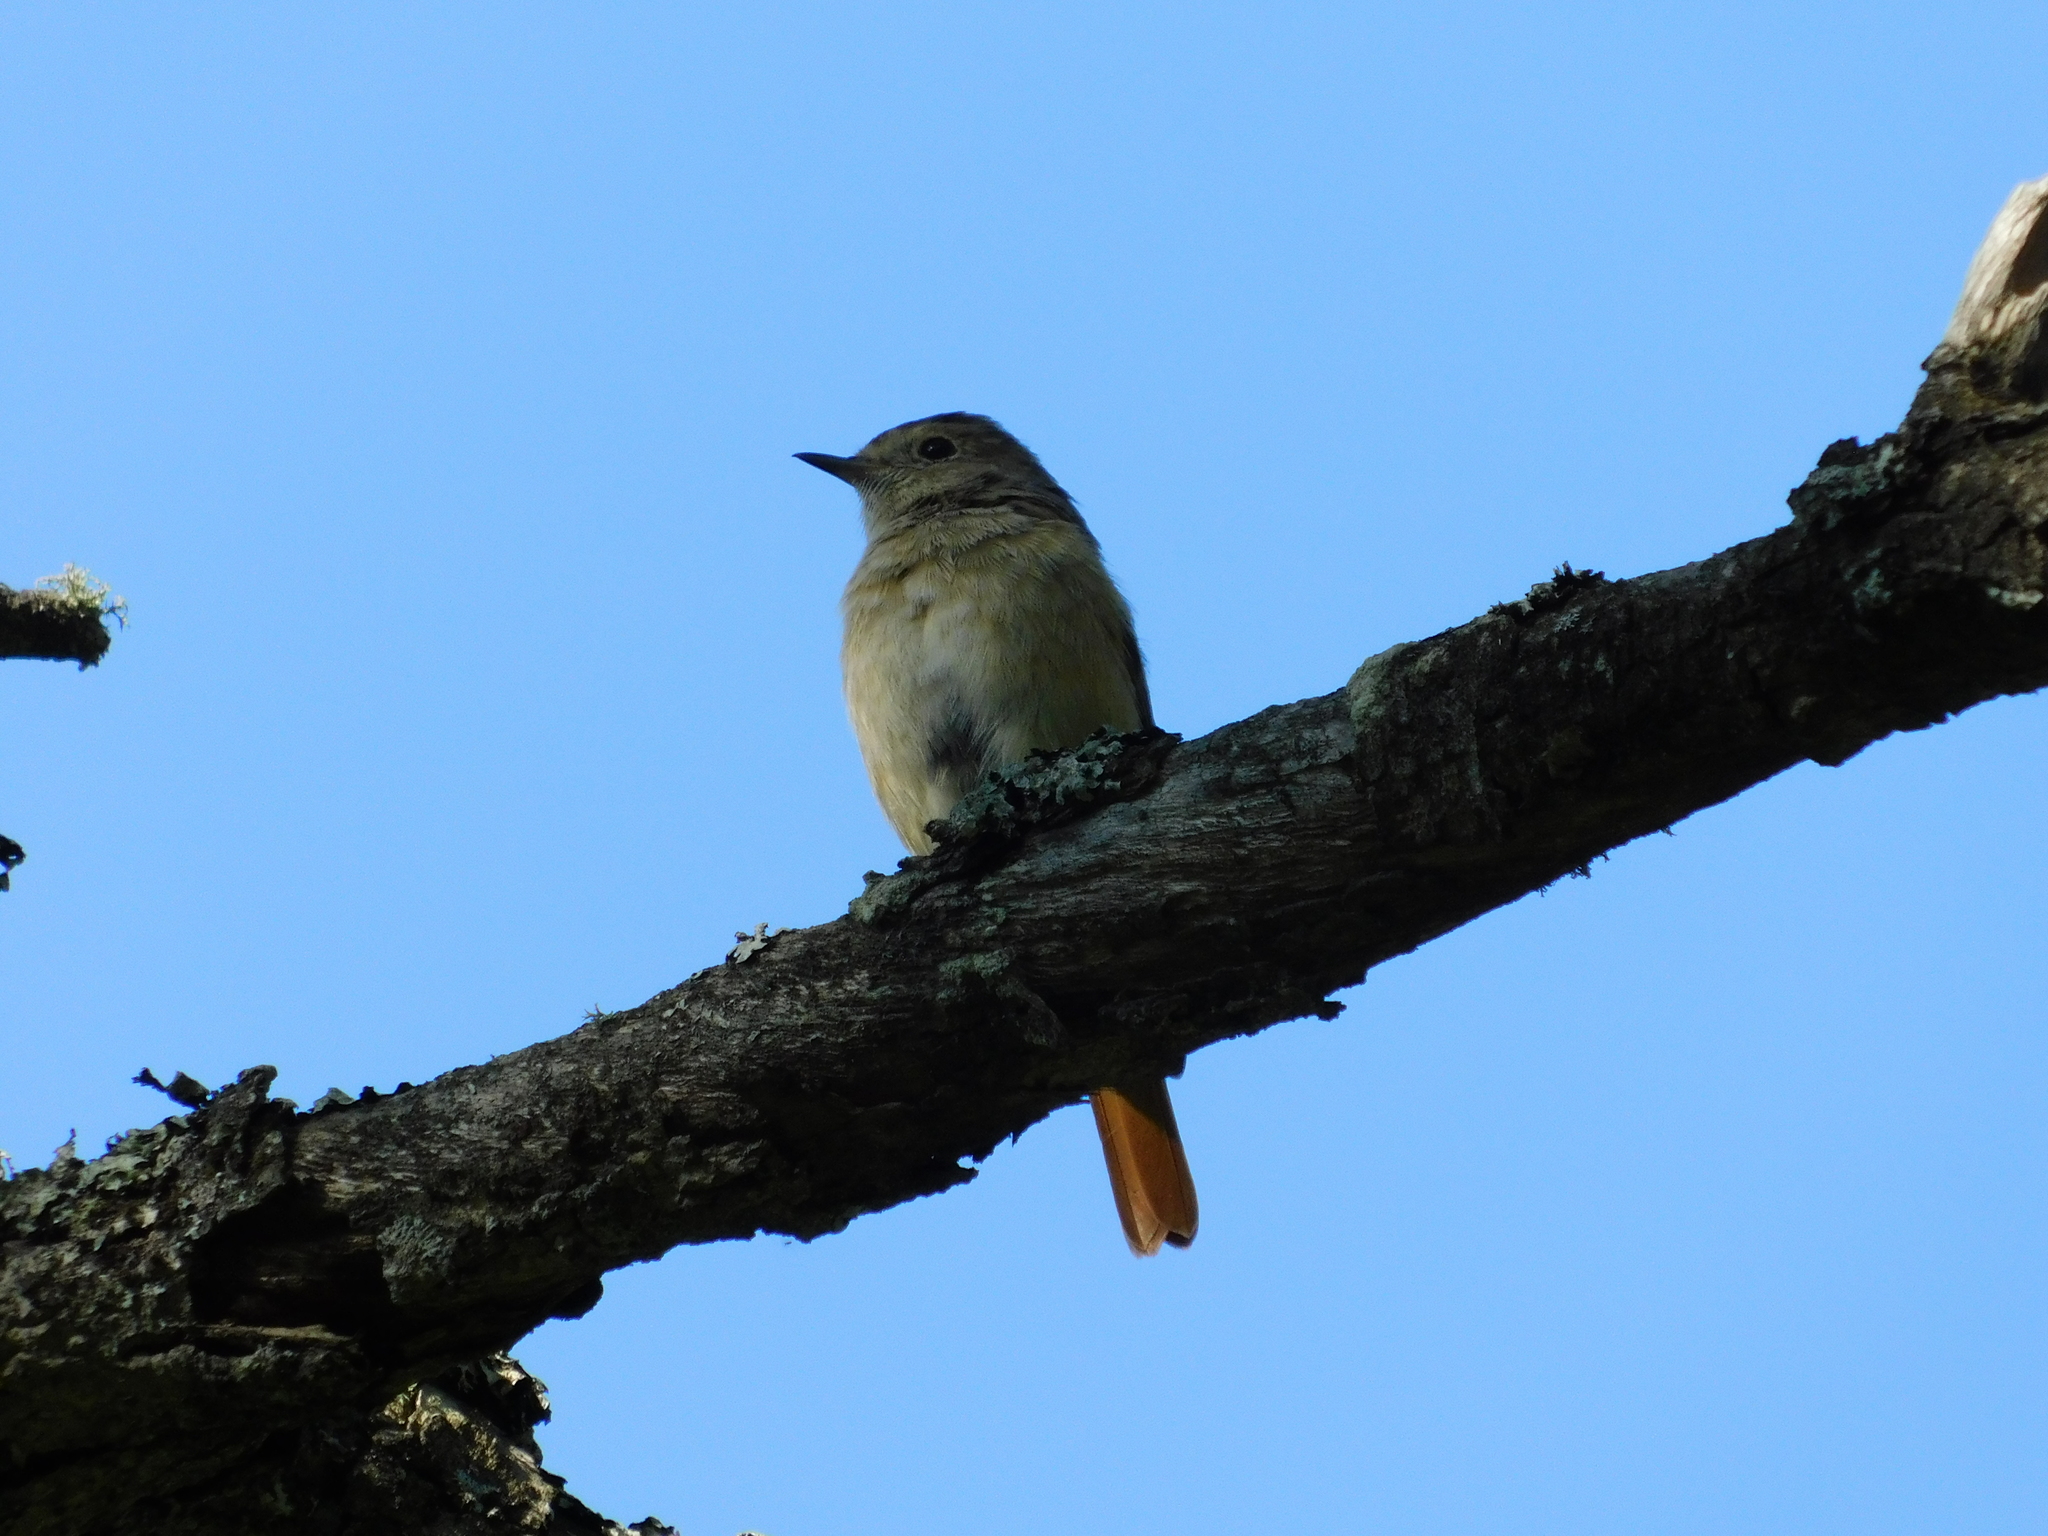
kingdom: Animalia
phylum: Chordata
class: Aves
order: Passeriformes
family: Muscicapidae
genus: Phoenicurus
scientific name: Phoenicurus phoenicurus
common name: Common redstart
